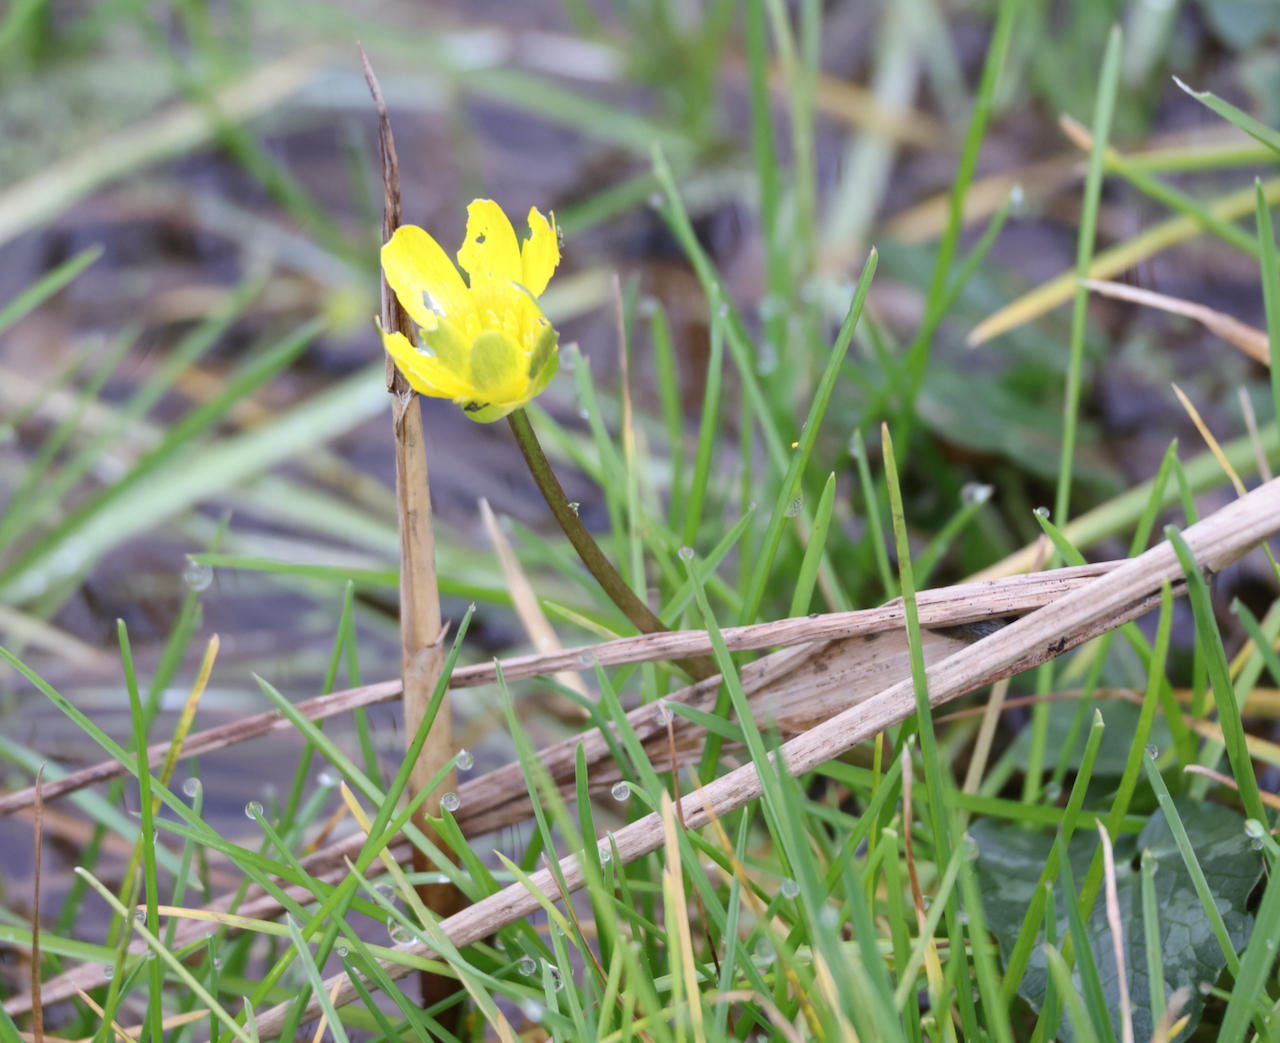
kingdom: Plantae
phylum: Tracheophyta
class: Magnoliopsida
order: Ranunculales
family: Ranunculaceae
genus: Ficaria
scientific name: Ficaria verna
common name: Lesser celandine
